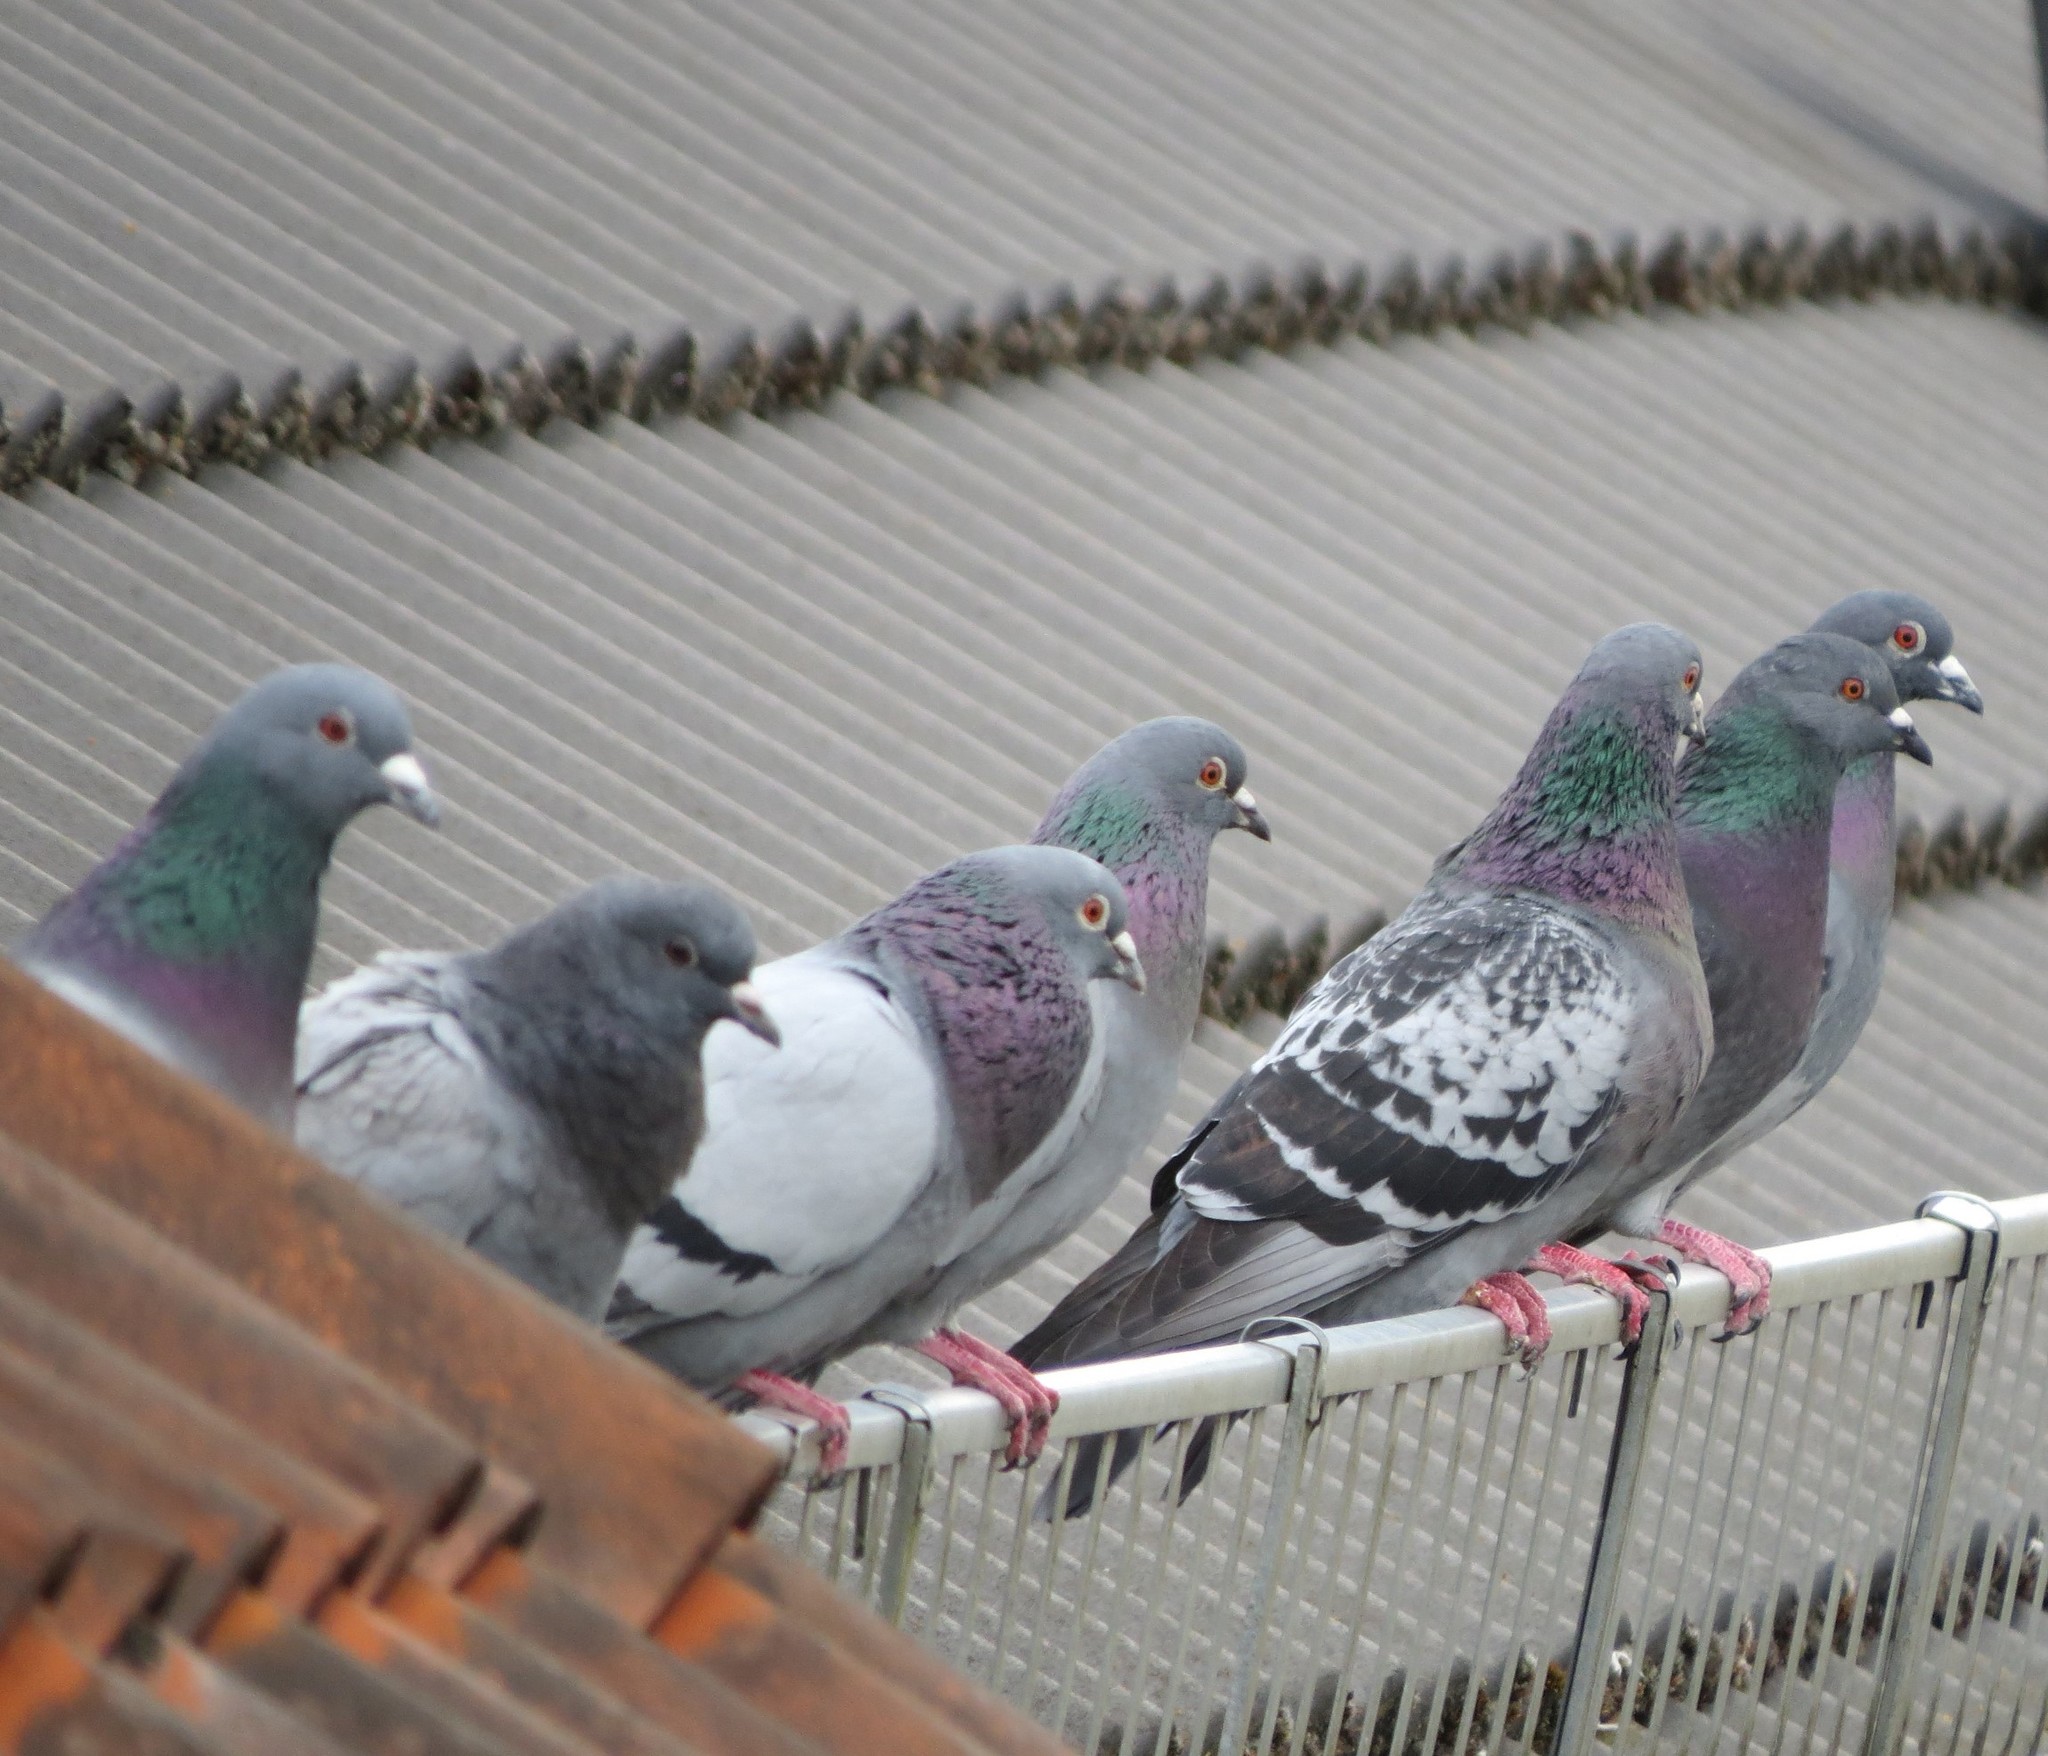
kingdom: Animalia
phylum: Chordata
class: Aves
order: Columbiformes
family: Columbidae
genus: Columba
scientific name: Columba livia
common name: Rock pigeon
